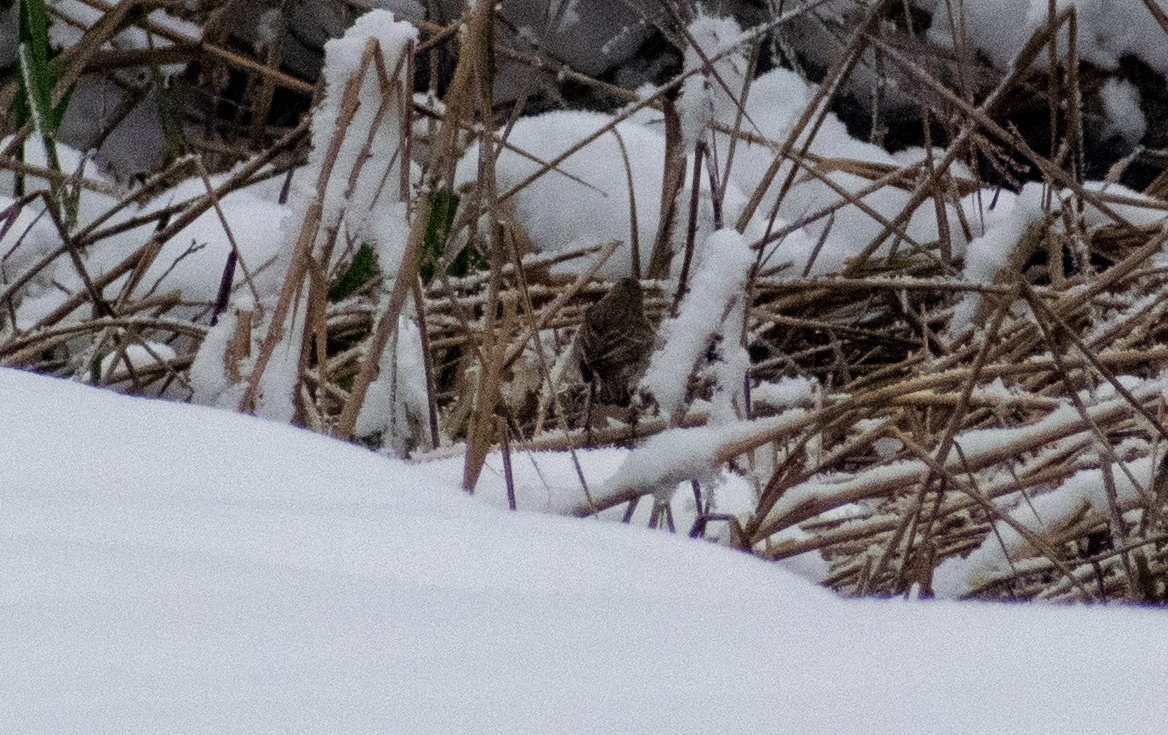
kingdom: Animalia
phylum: Chordata
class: Aves
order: Passeriformes
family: Motacillidae
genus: Anthus
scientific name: Anthus spinoletta
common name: Water pipit
